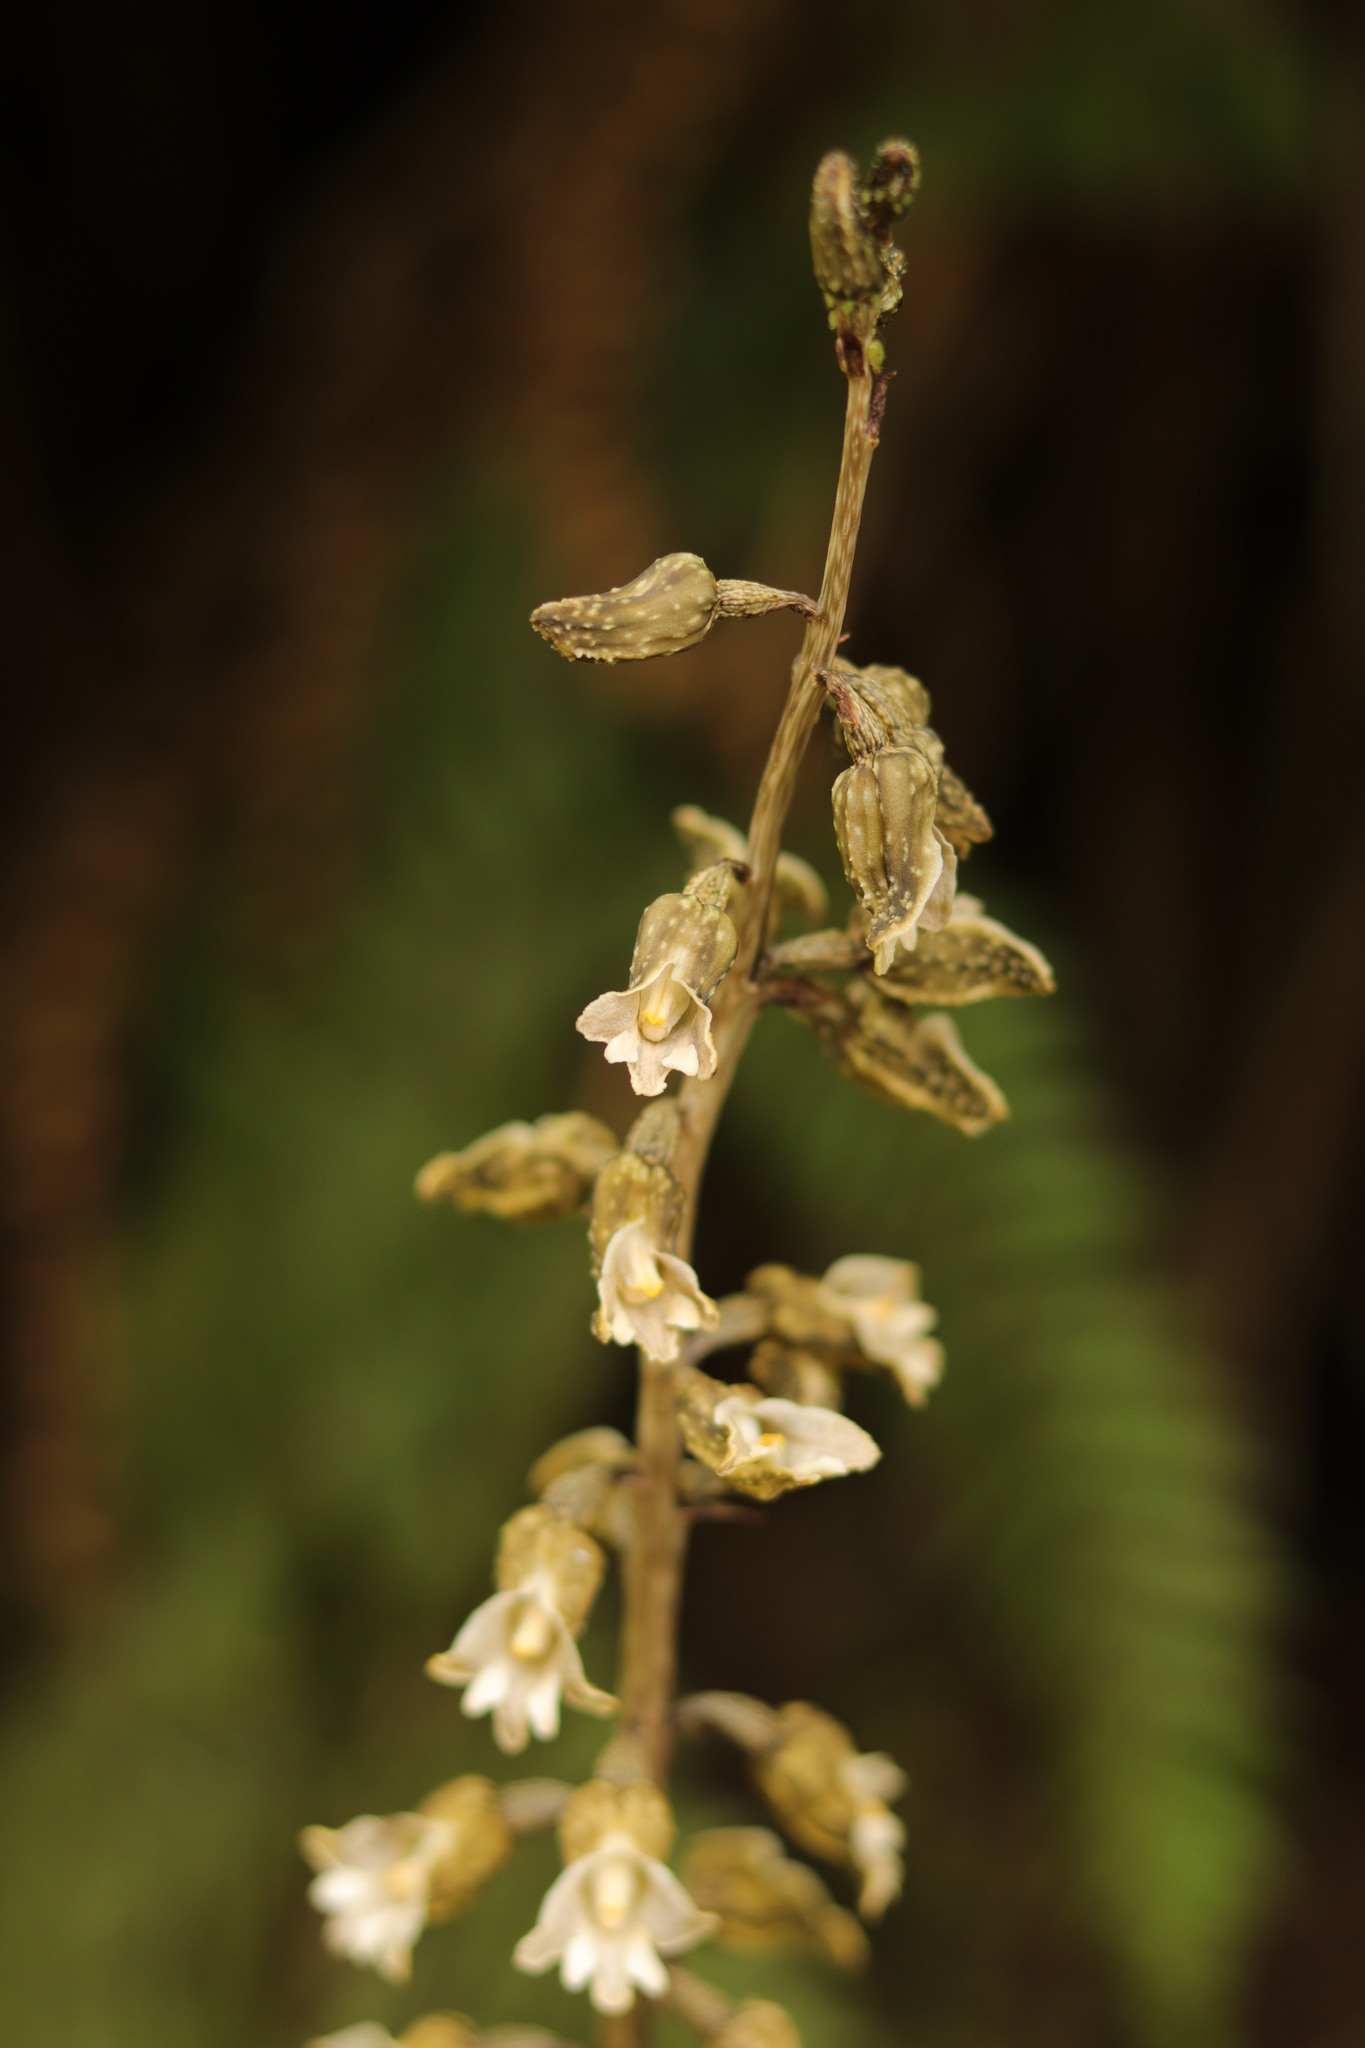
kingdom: Plantae
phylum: Tracheophyta
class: Liliopsida
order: Asparagales
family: Orchidaceae
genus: Gastrodia
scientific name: Gastrodia molloyi
